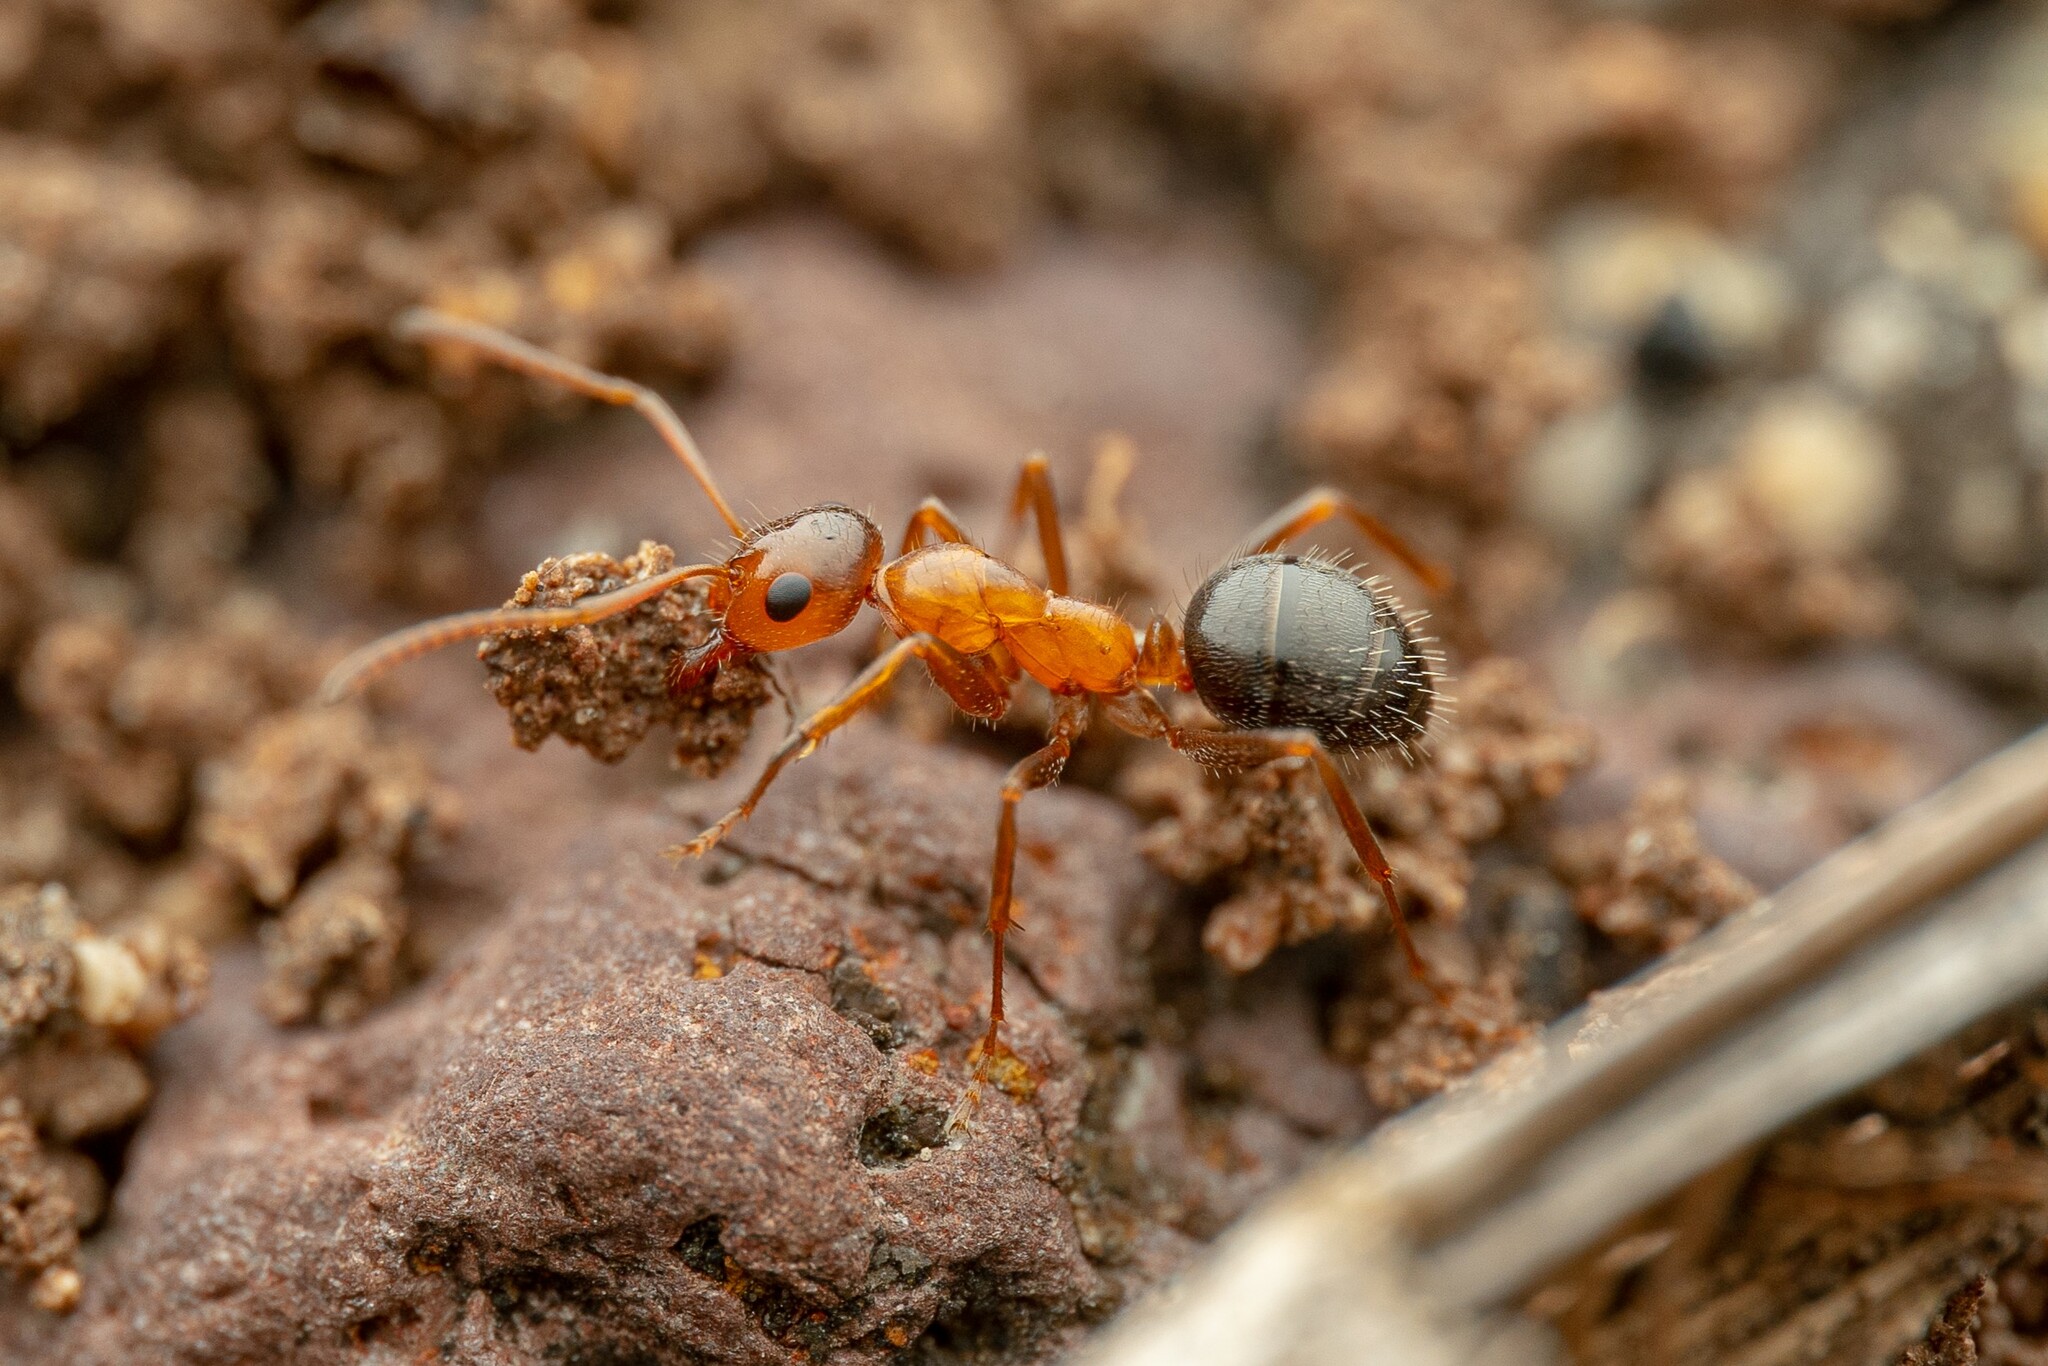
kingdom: Animalia
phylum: Arthropoda
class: Insecta
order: Hymenoptera
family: Formicidae
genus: Formica
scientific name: Formica perpilosa
